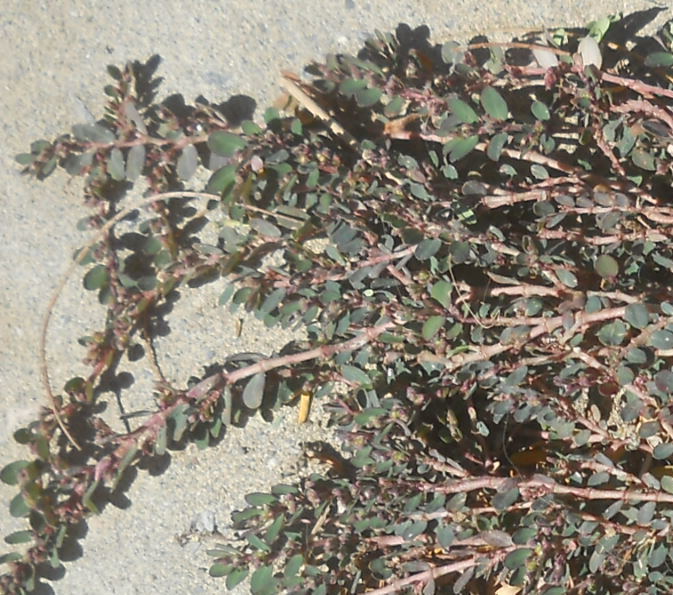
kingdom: Plantae
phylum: Tracheophyta
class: Magnoliopsida
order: Malpighiales
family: Euphorbiaceae
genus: Euphorbia
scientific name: Euphorbia prostrata
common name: Prostrate sandmat
